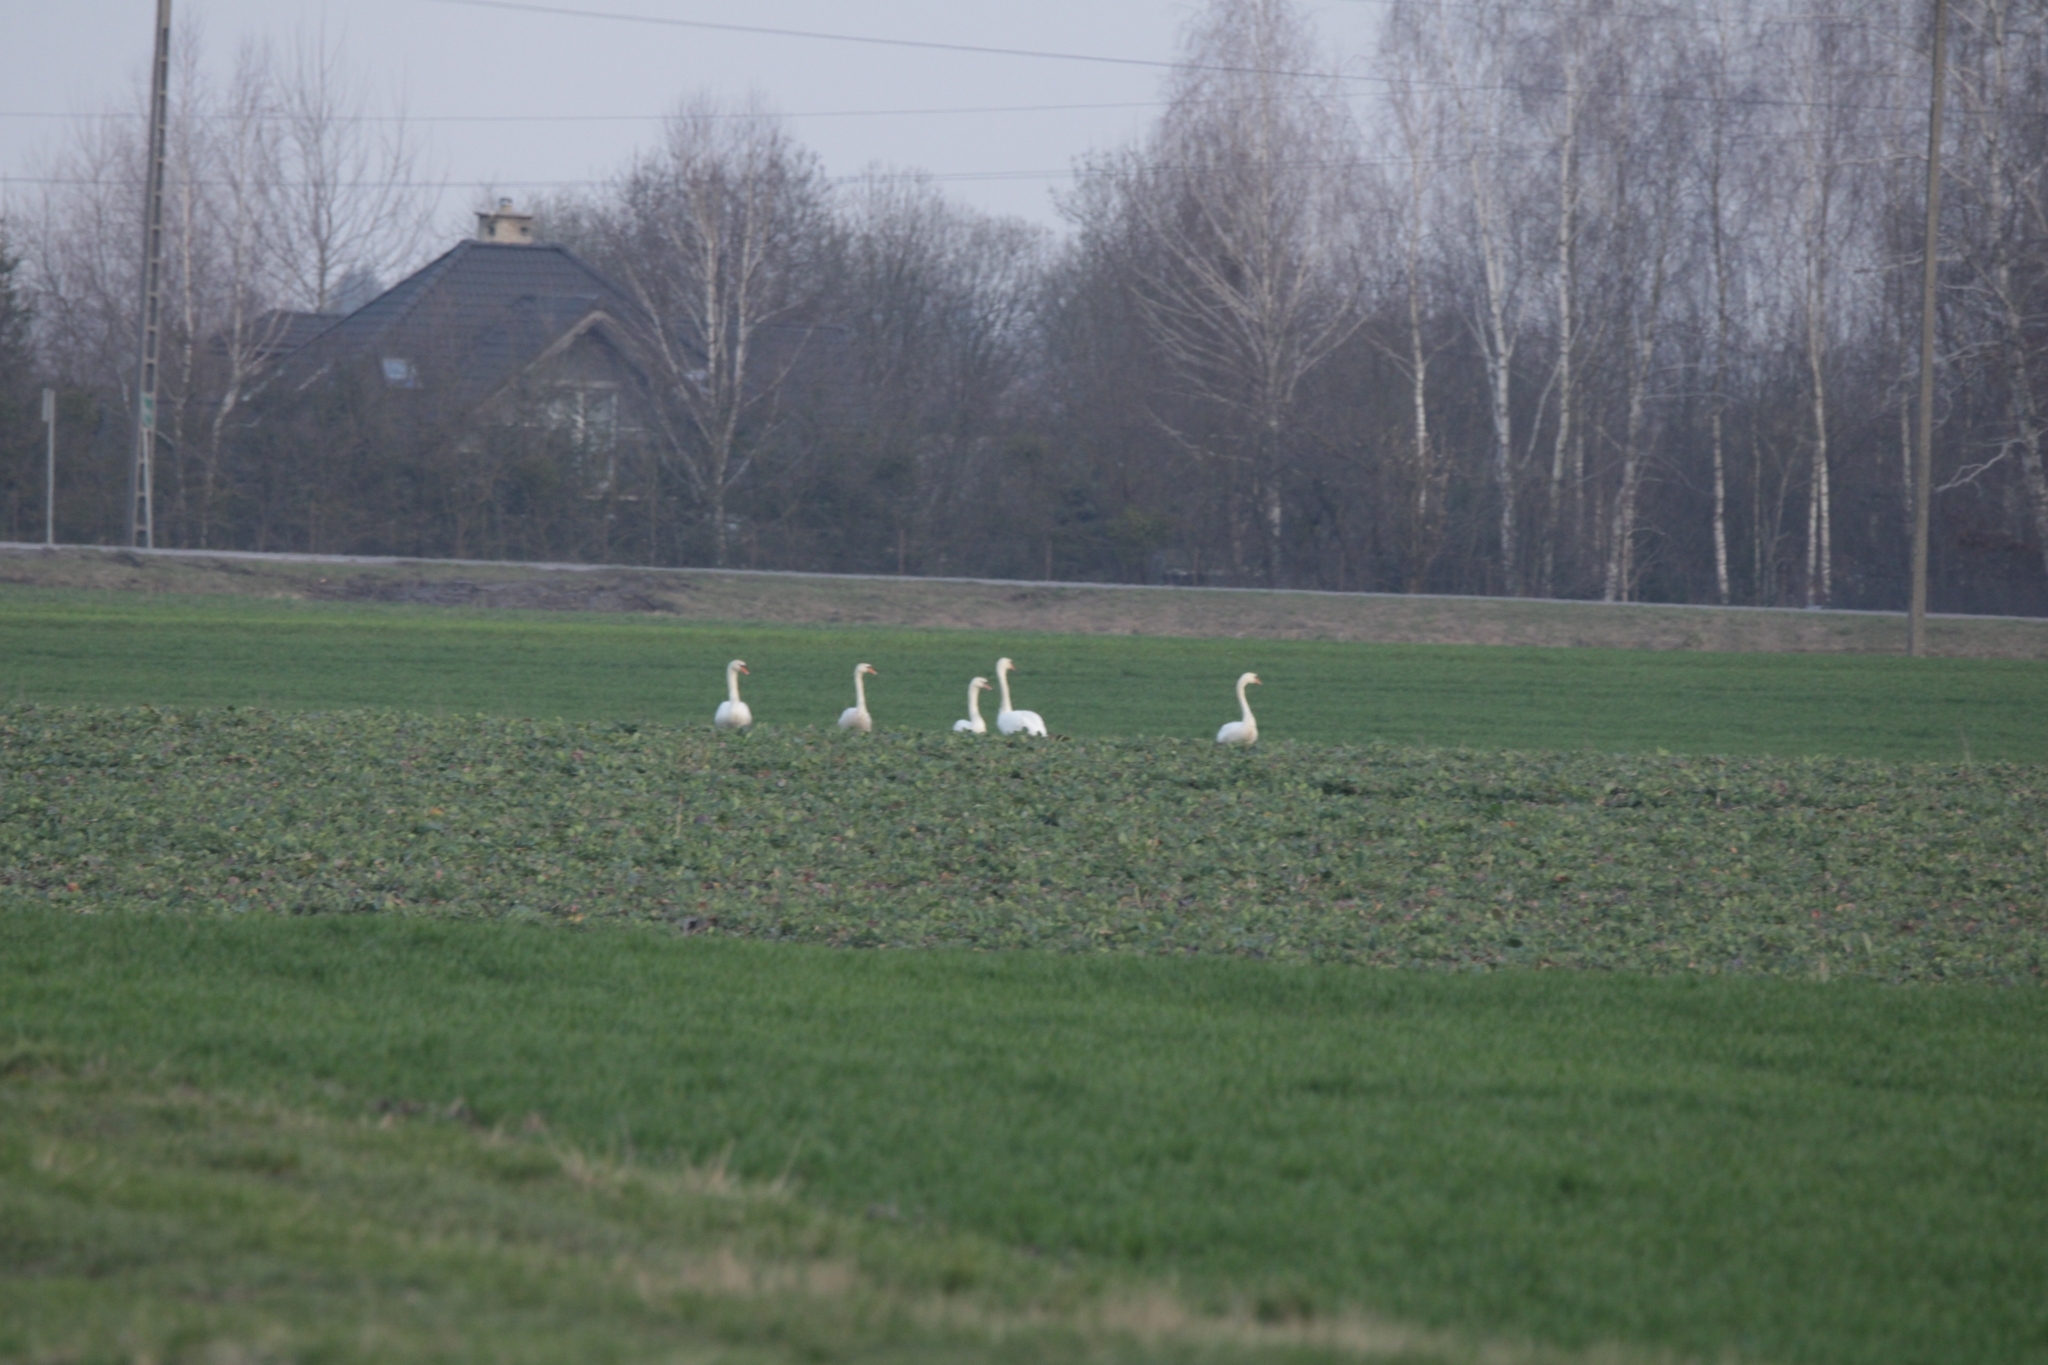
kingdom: Animalia
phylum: Chordata
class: Aves
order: Anseriformes
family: Anatidae
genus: Cygnus
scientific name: Cygnus olor
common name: Mute swan
